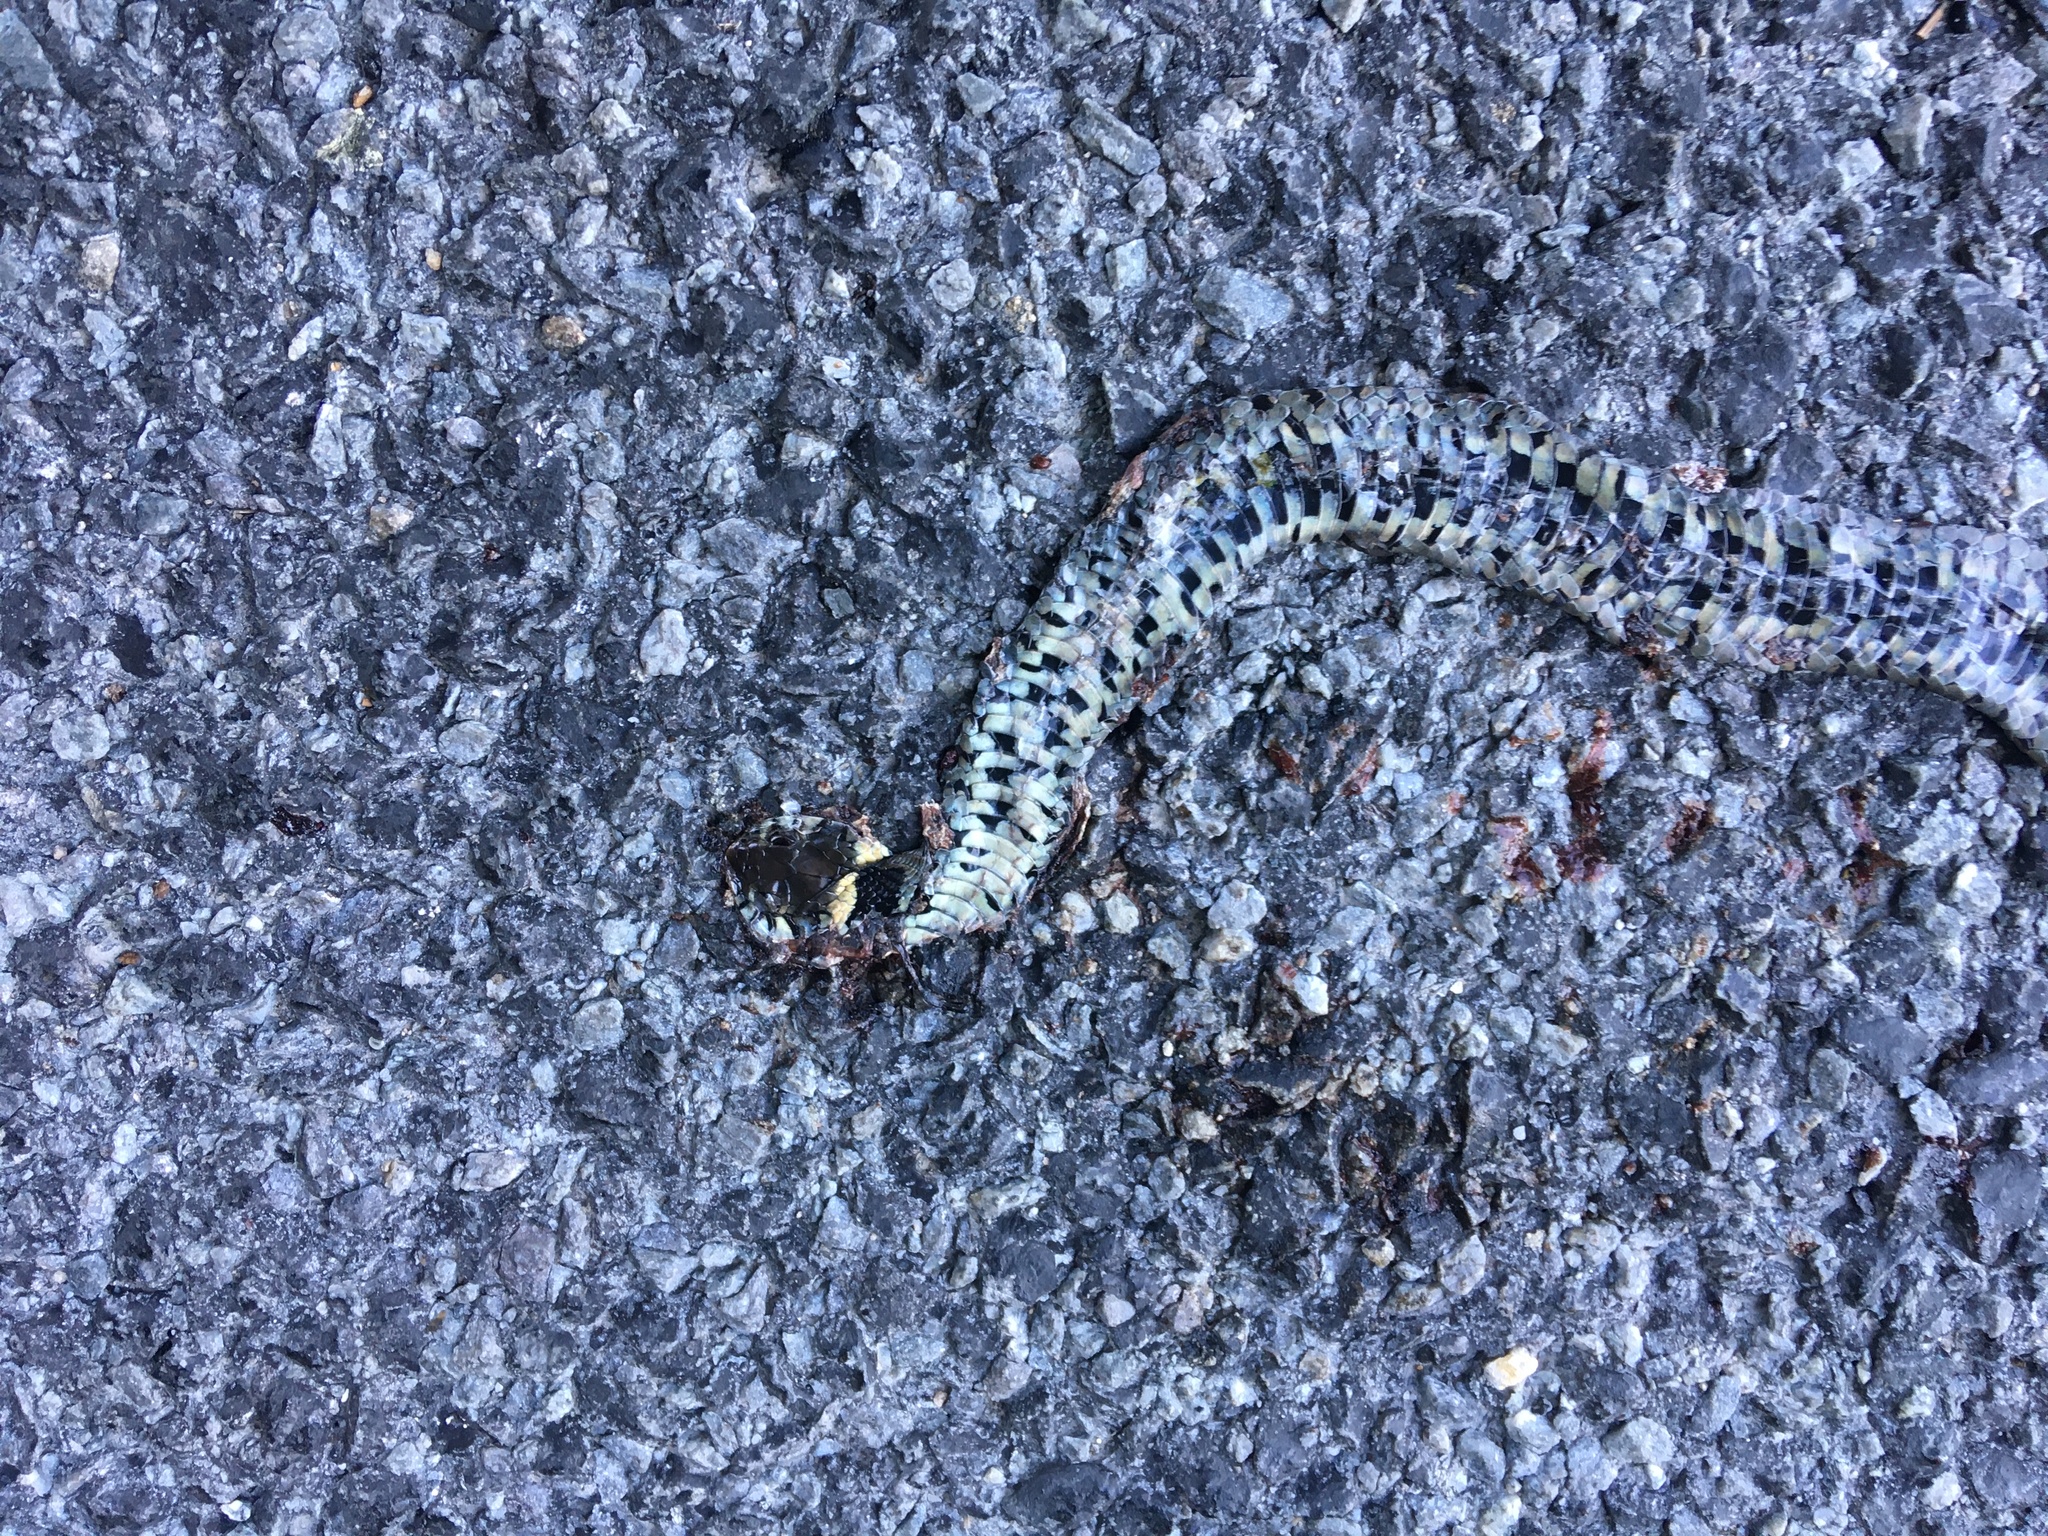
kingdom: Animalia
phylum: Chordata
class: Squamata
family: Colubridae
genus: Natrix
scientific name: Natrix helvetica
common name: Banded grass snake
